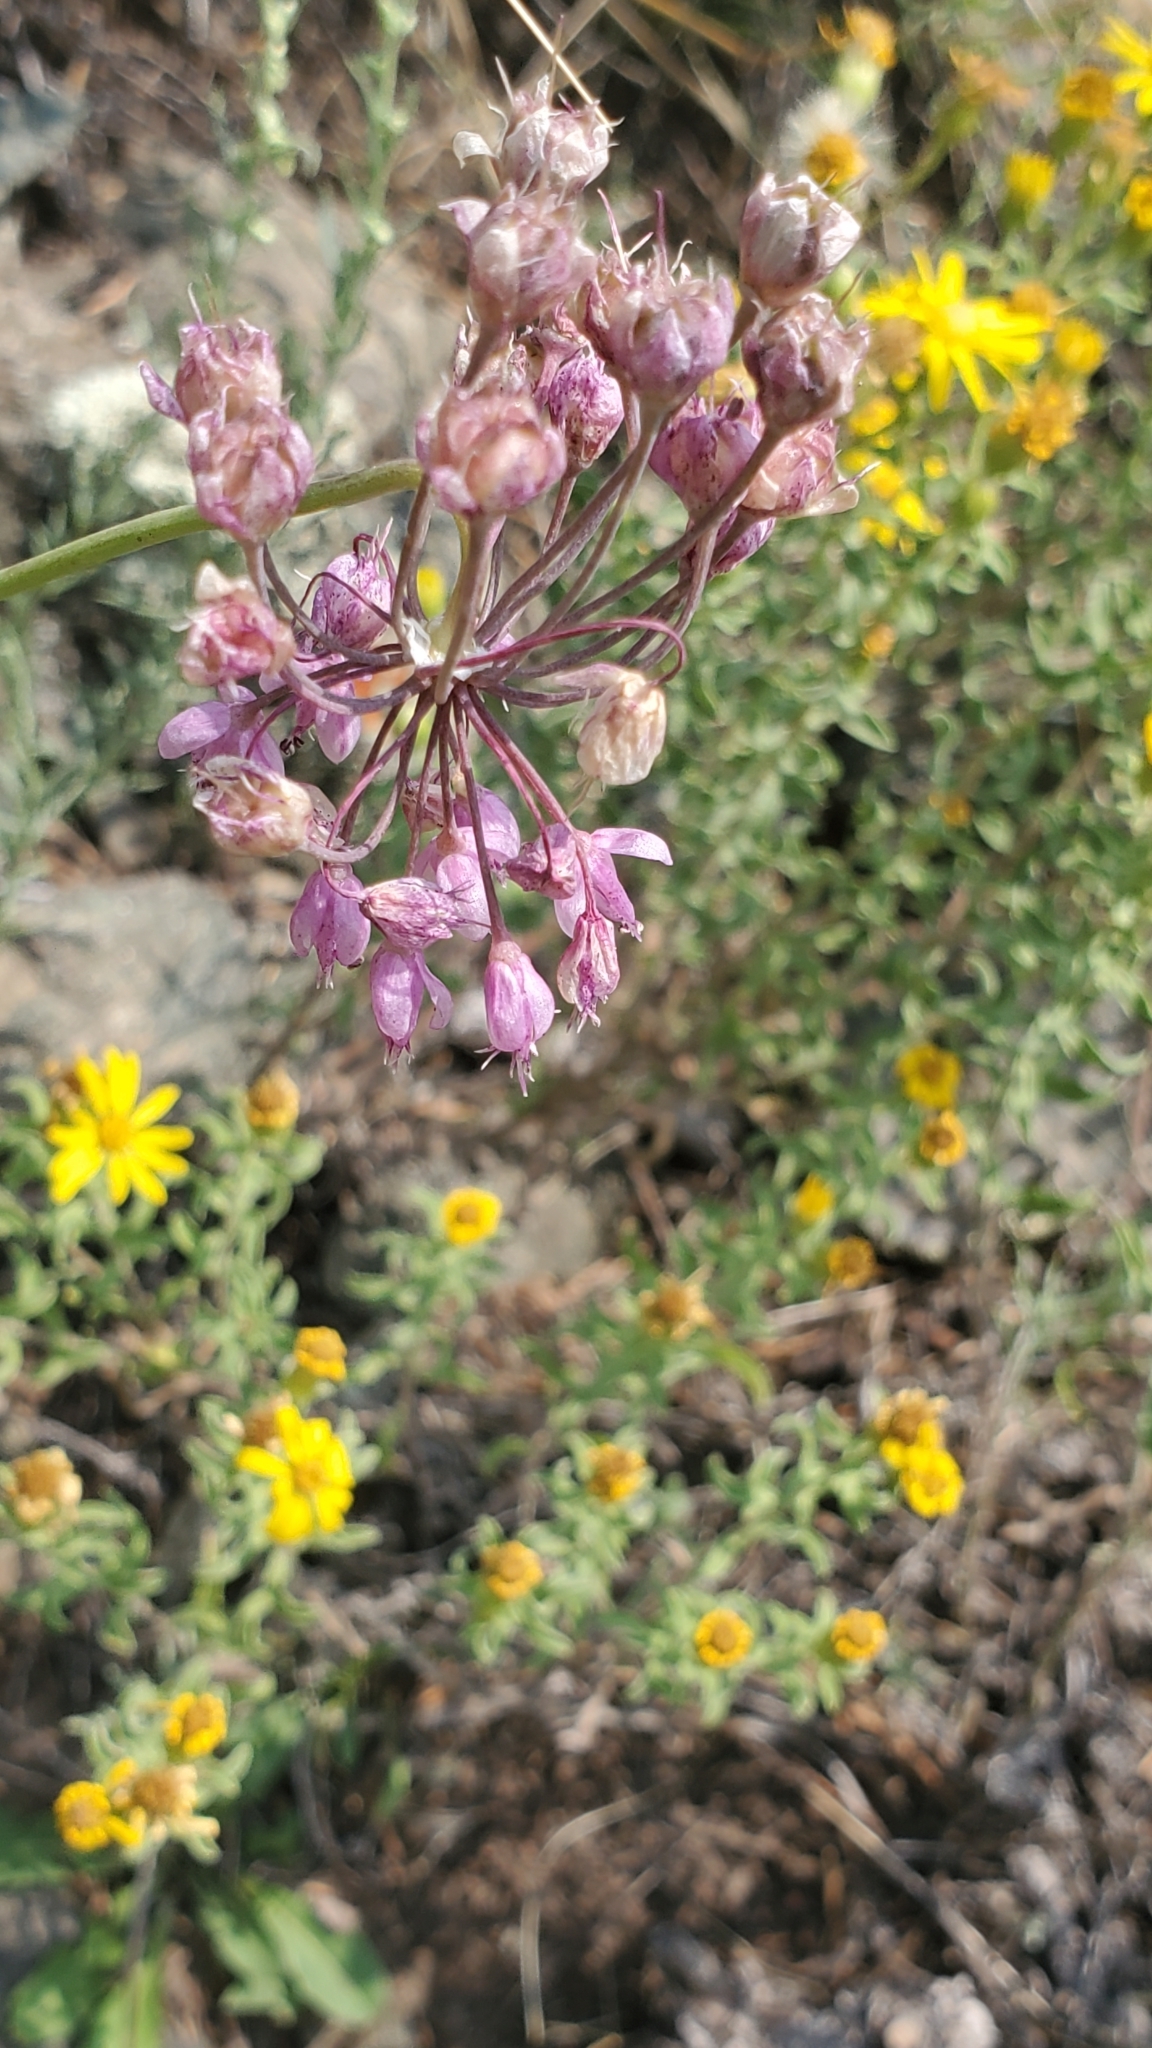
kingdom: Plantae
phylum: Tracheophyta
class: Liliopsida
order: Asparagales
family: Amaryllidaceae
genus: Allium
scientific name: Allium cernuum
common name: Nodding onion
